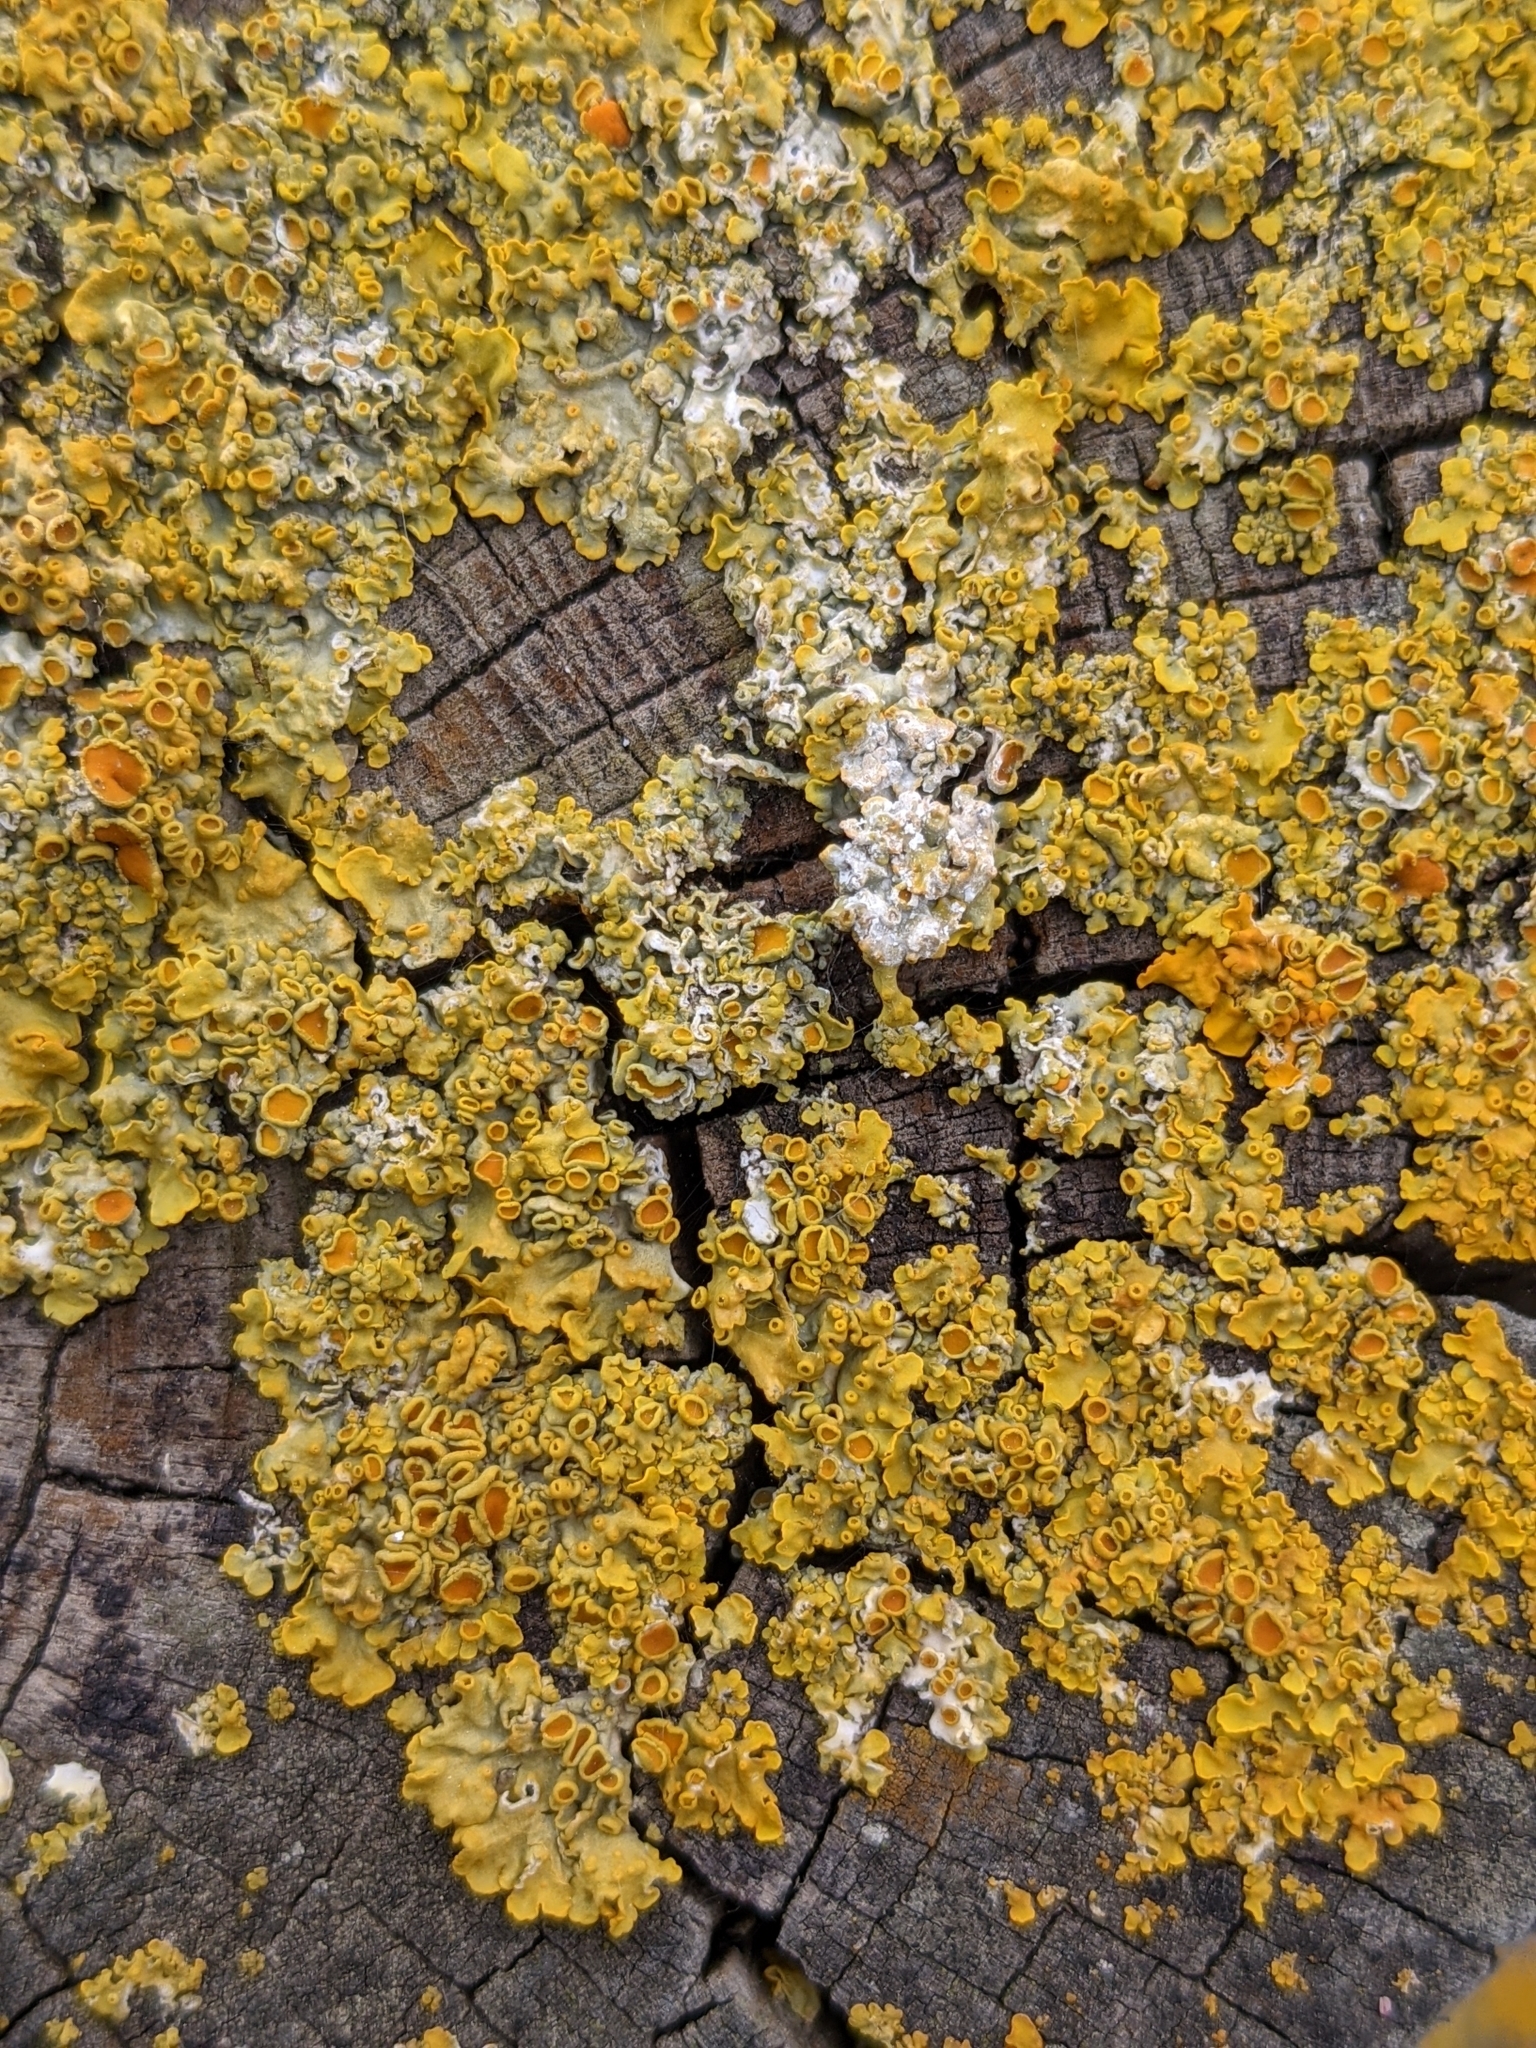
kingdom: Fungi
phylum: Ascomycota
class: Lecanoromycetes
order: Teloschistales
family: Teloschistaceae
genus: Xanthoria
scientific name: Xanthoria parietina
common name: Common orange lichen
